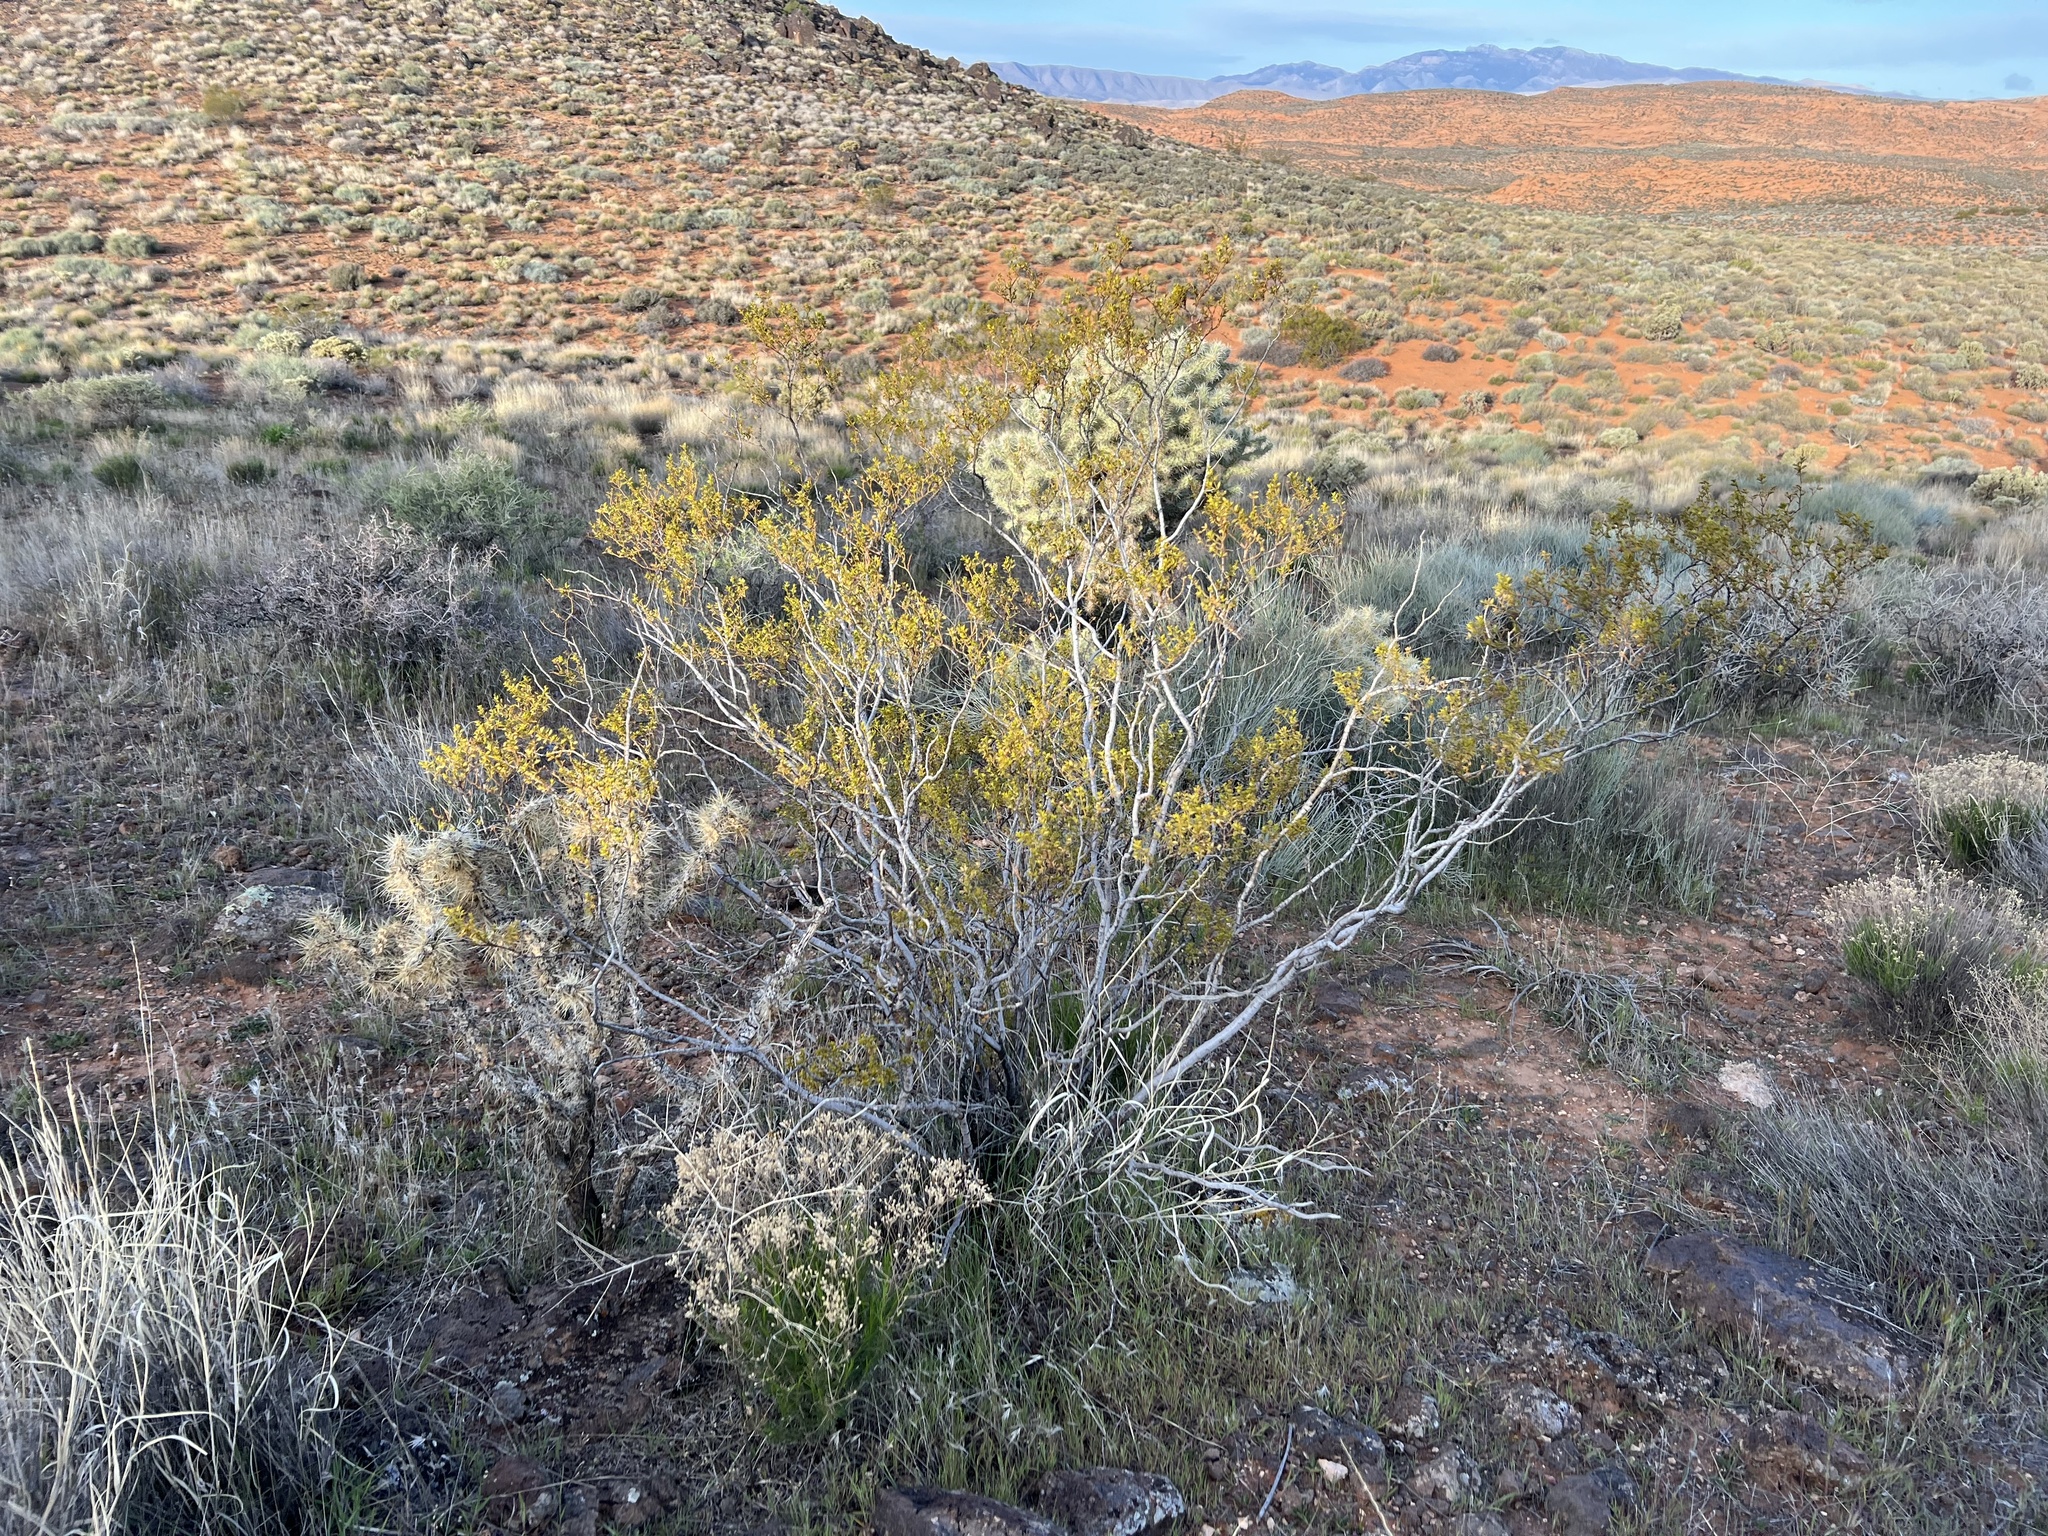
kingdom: Plantae
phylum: Tracheophyta
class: Magnoliopsida
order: Zygophyllales
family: Zygophyllaceae
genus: Larrea
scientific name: Larrea tridentata
